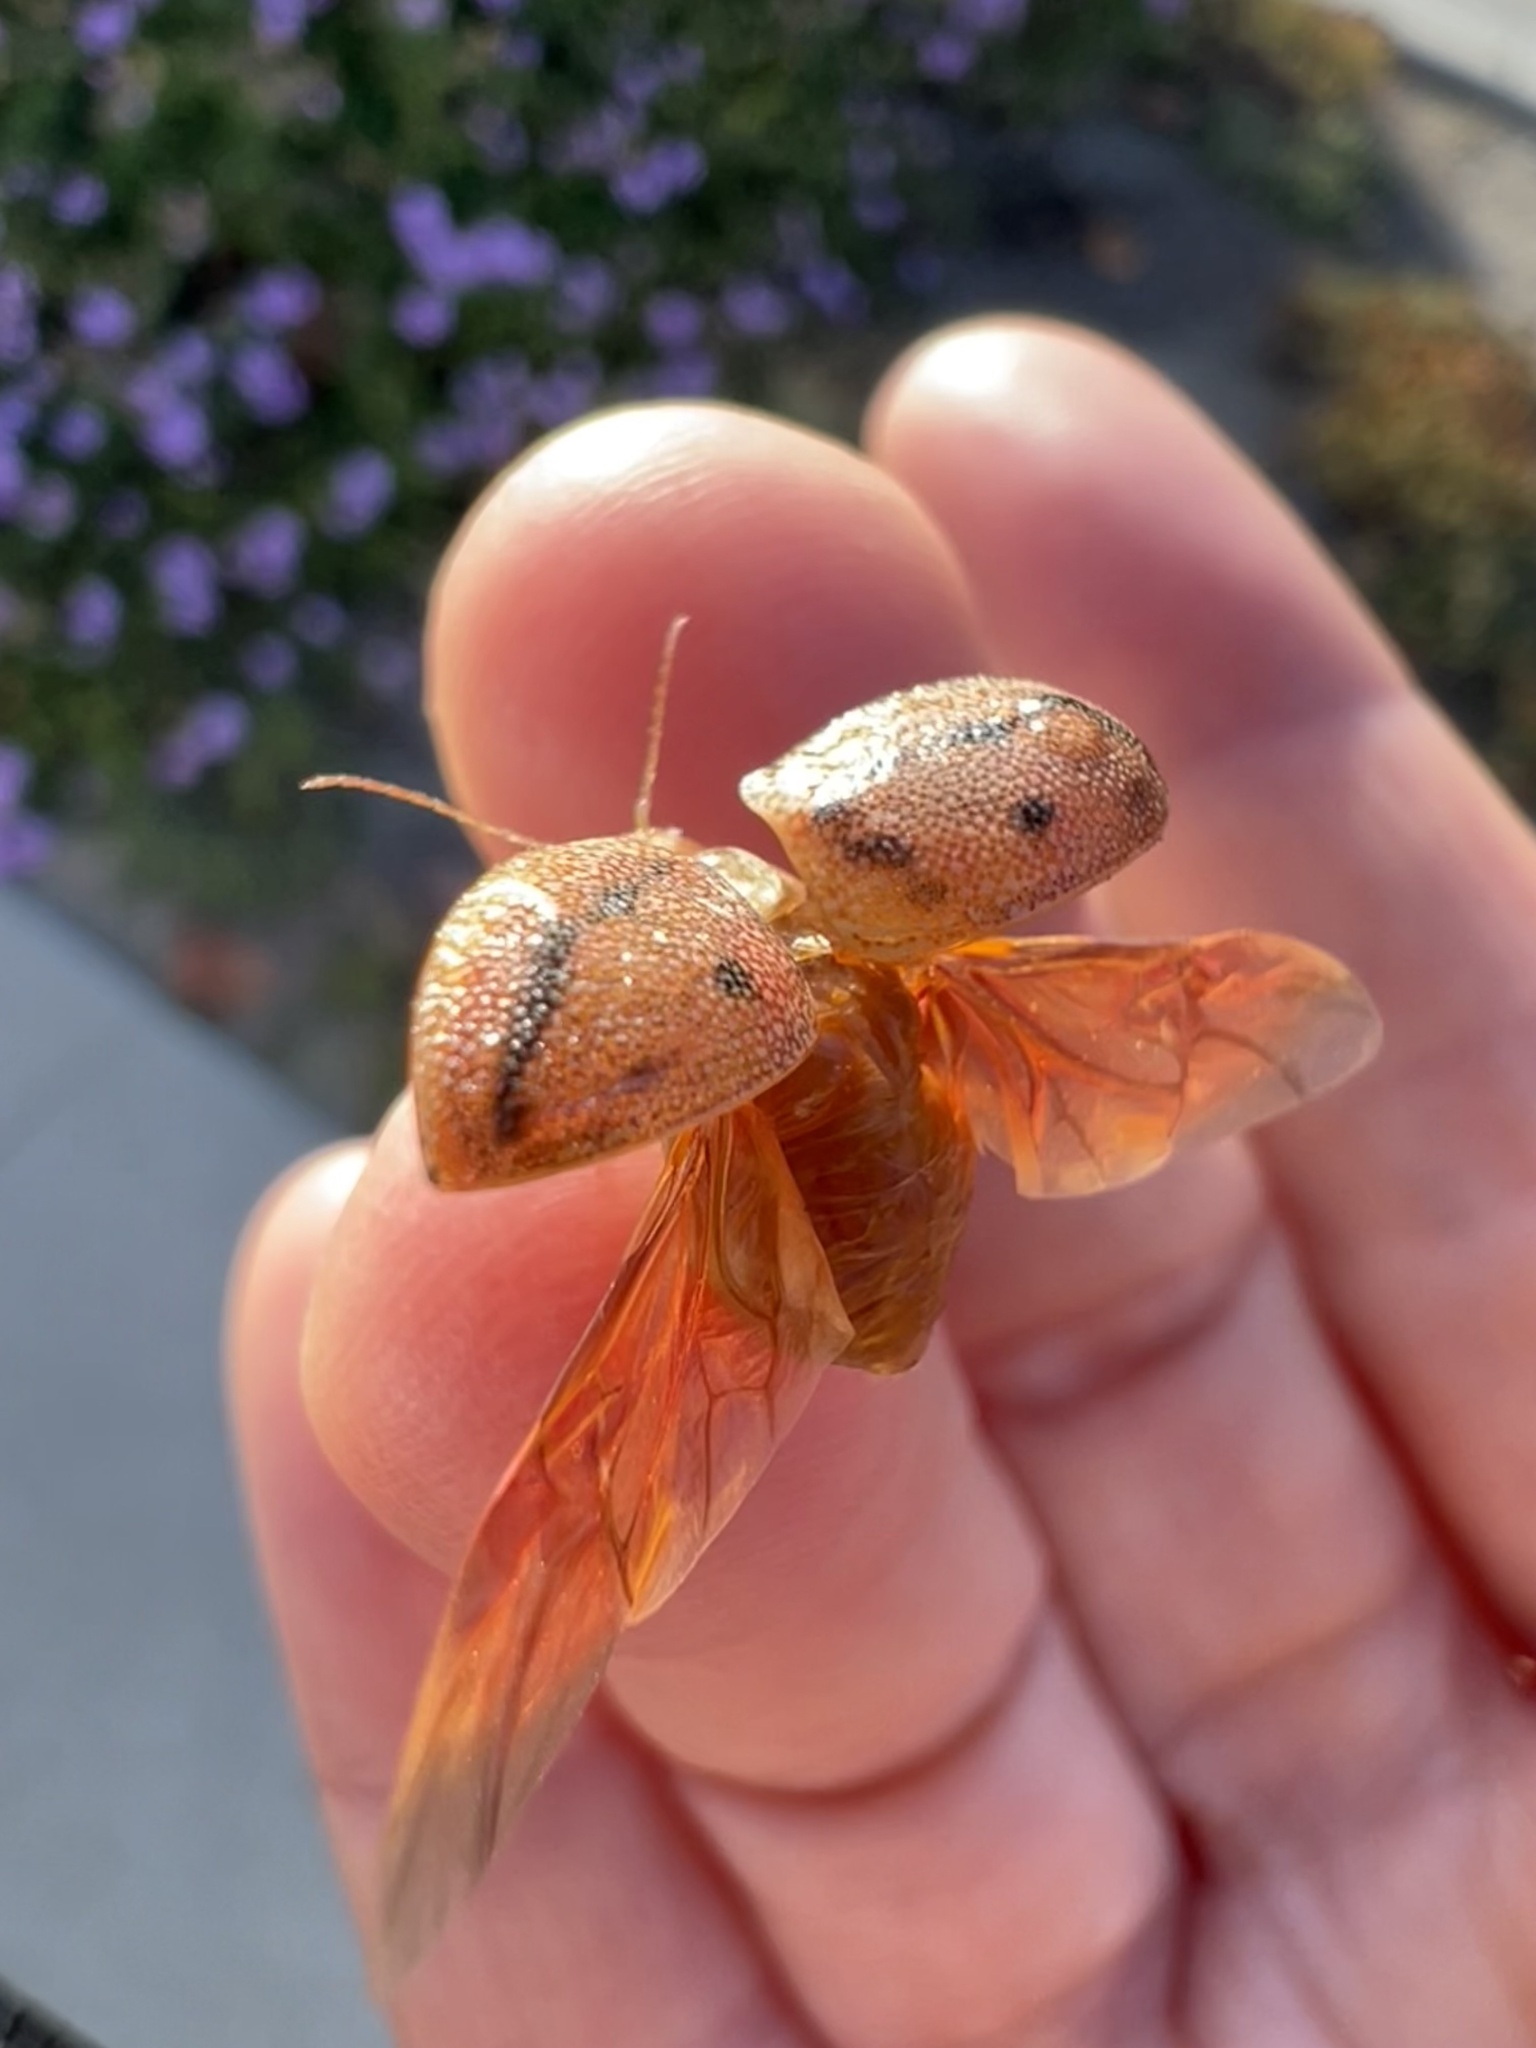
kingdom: Animalia
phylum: Arthropoda
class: Insecta
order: Coleoptera
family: Chrysomelidae
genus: Paropsis
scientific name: Paropsis
